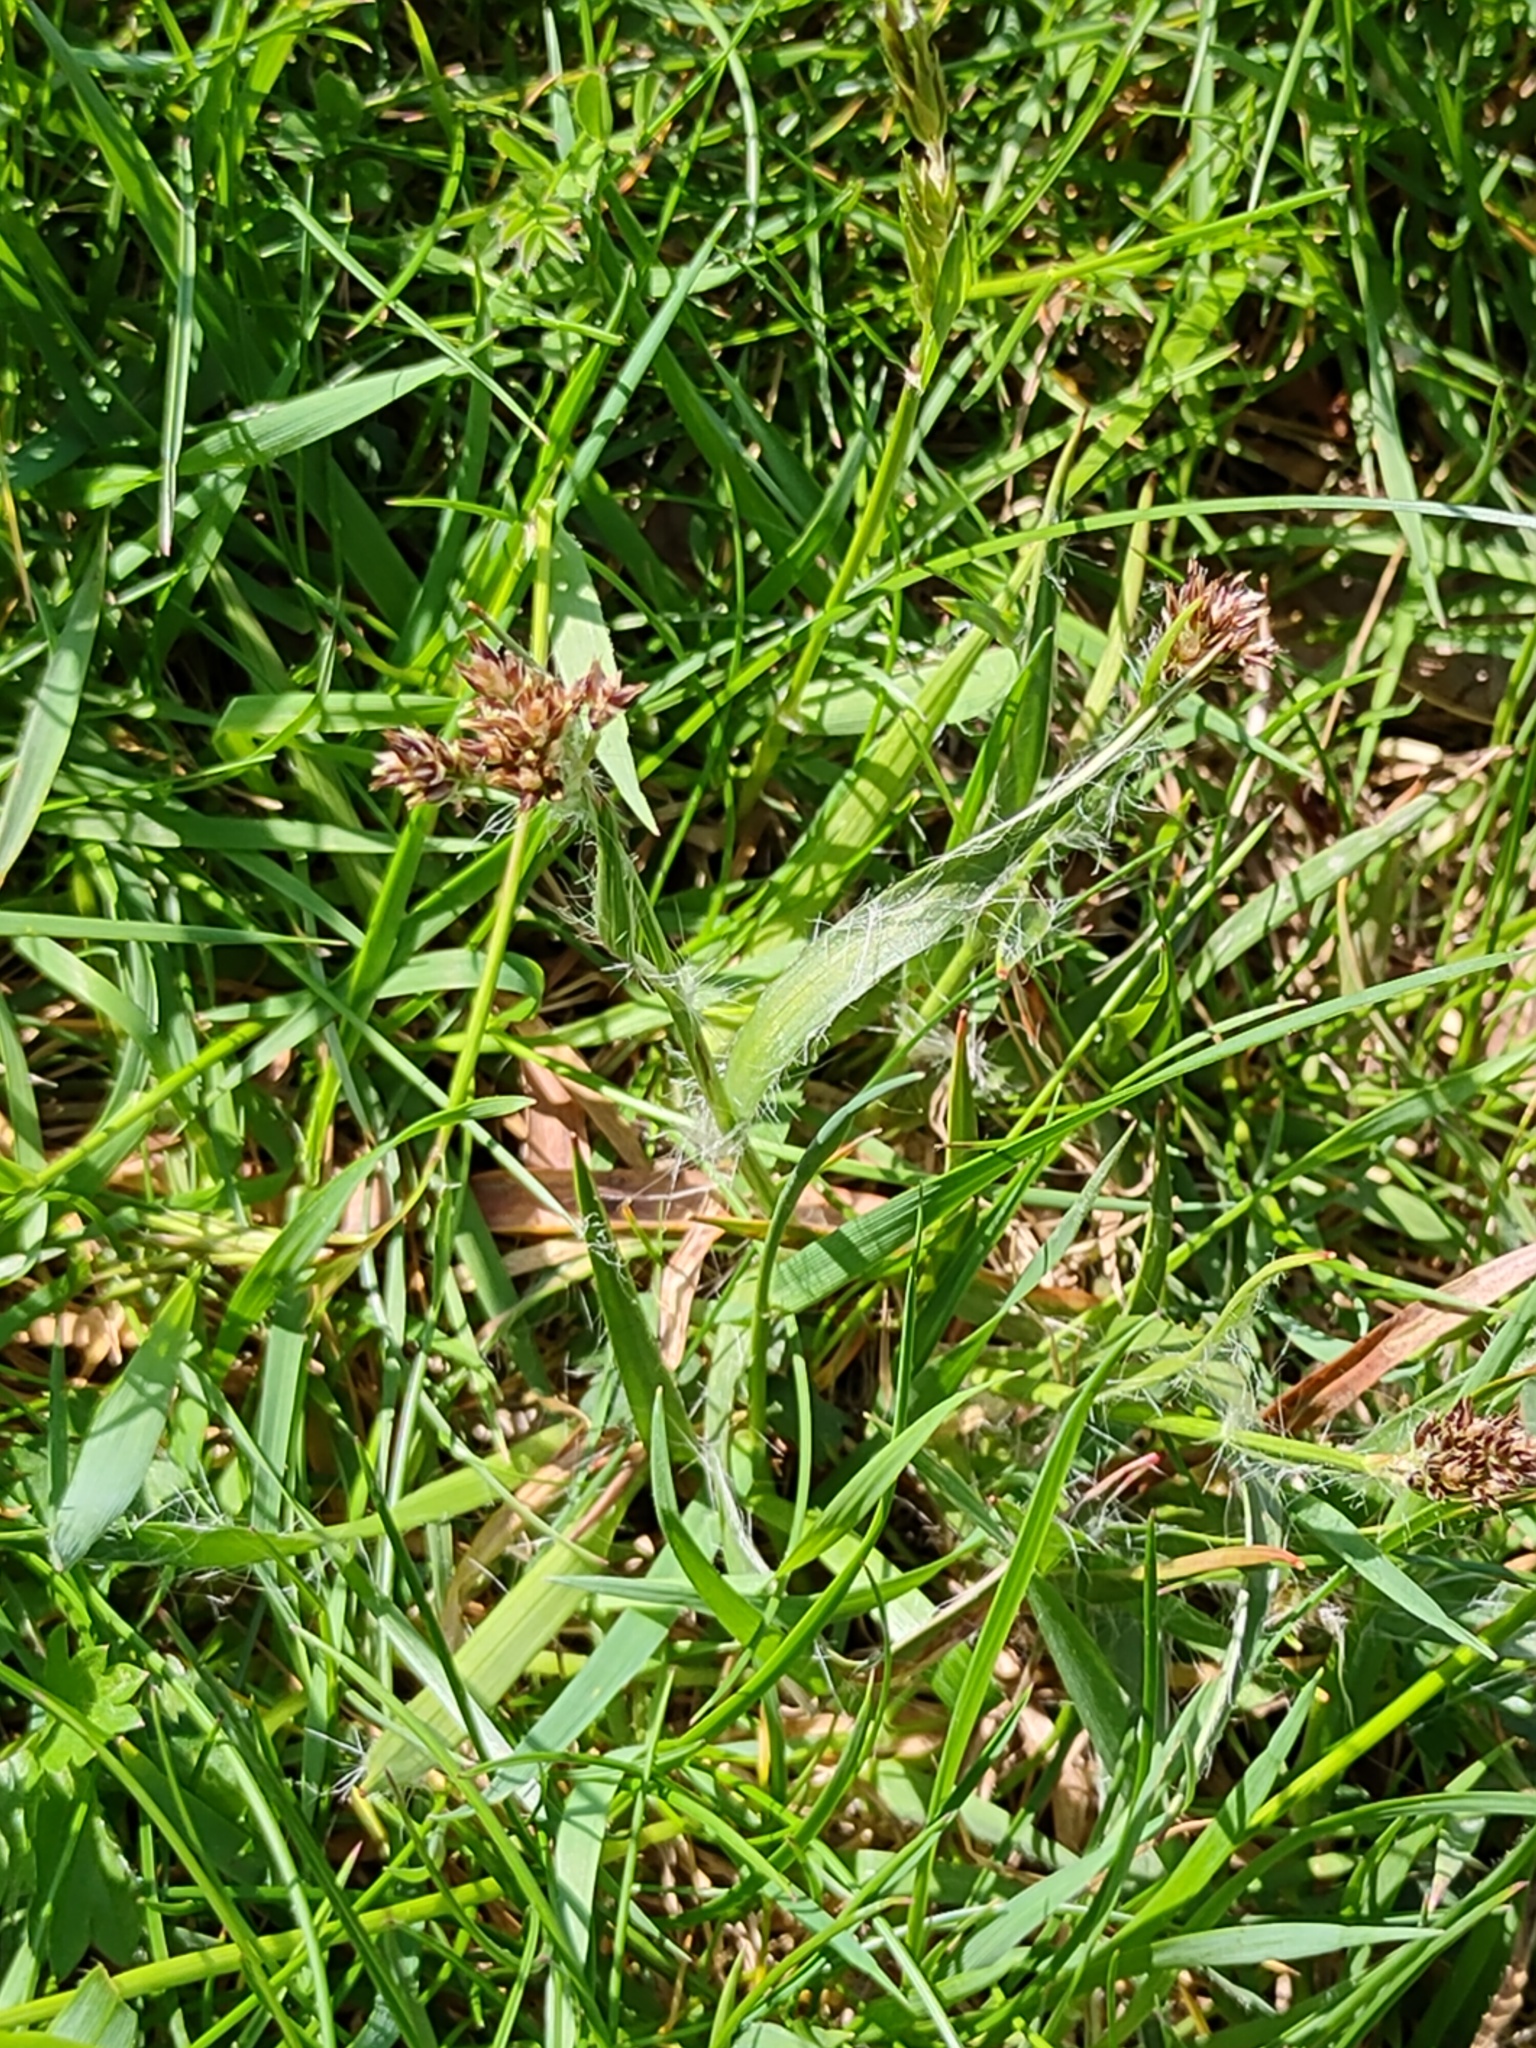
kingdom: Plantae
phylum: Tracheophyta
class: Liliopsida
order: Poales
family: Juncaceae
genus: Luzula
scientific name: Luzula campestris
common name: Field wood-rush
